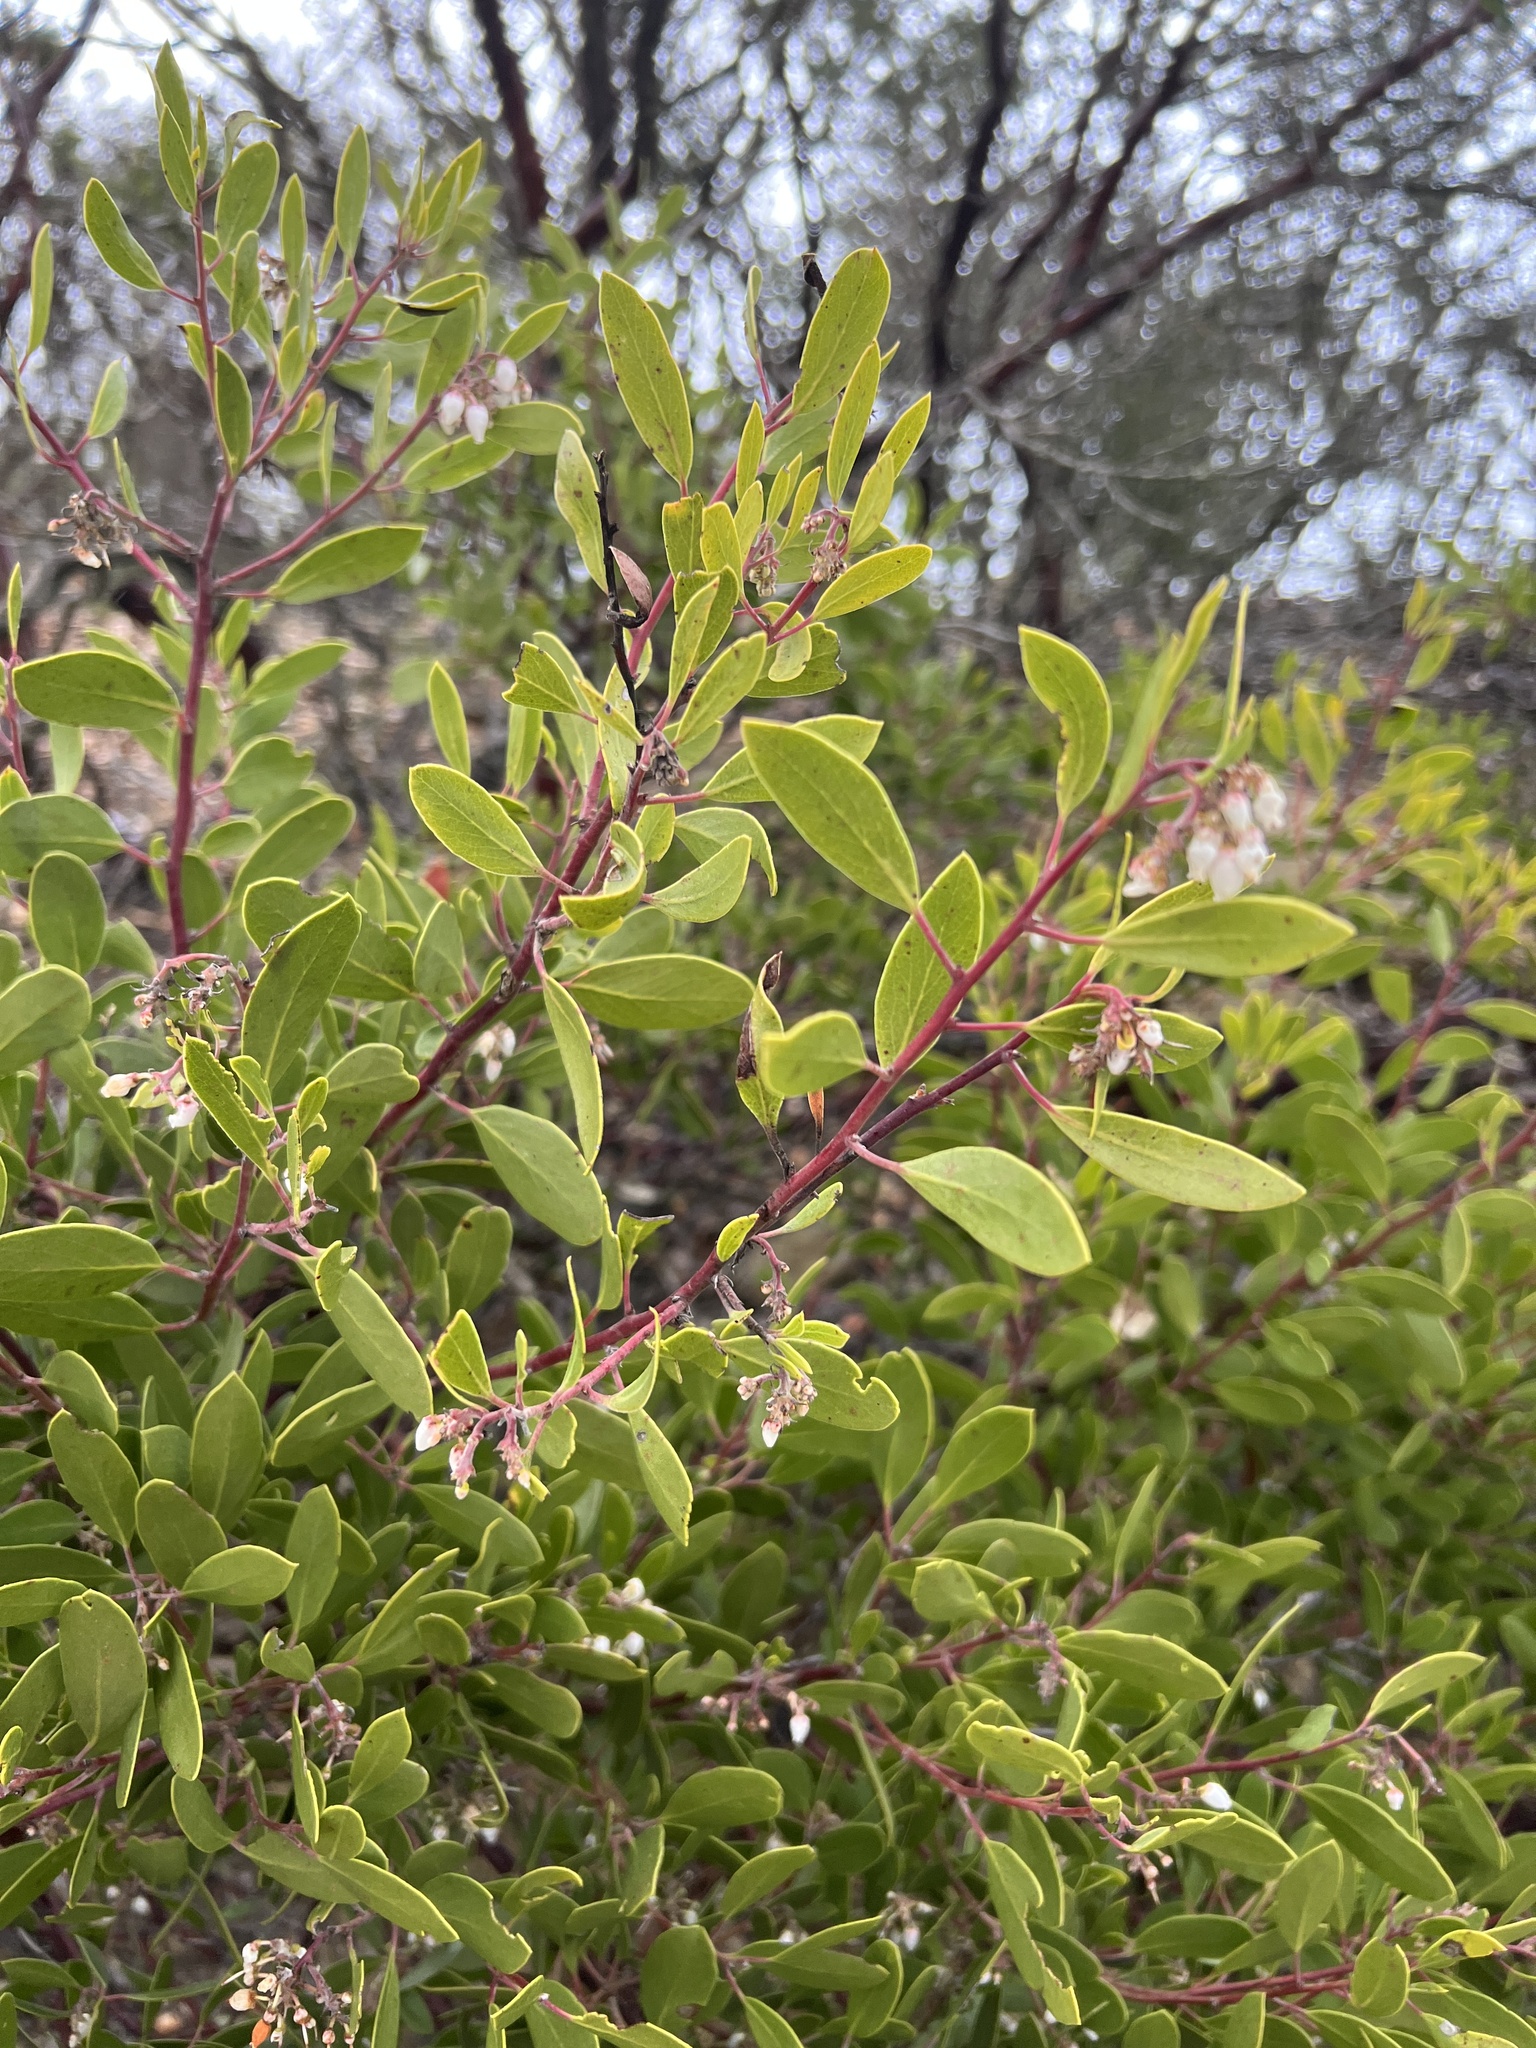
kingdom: Plantae
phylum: Tracheophyta
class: Magnoliopsida
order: Ericales
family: Ericaceae
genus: Arctostaphylos
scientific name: Arctostaphylos manzanita
